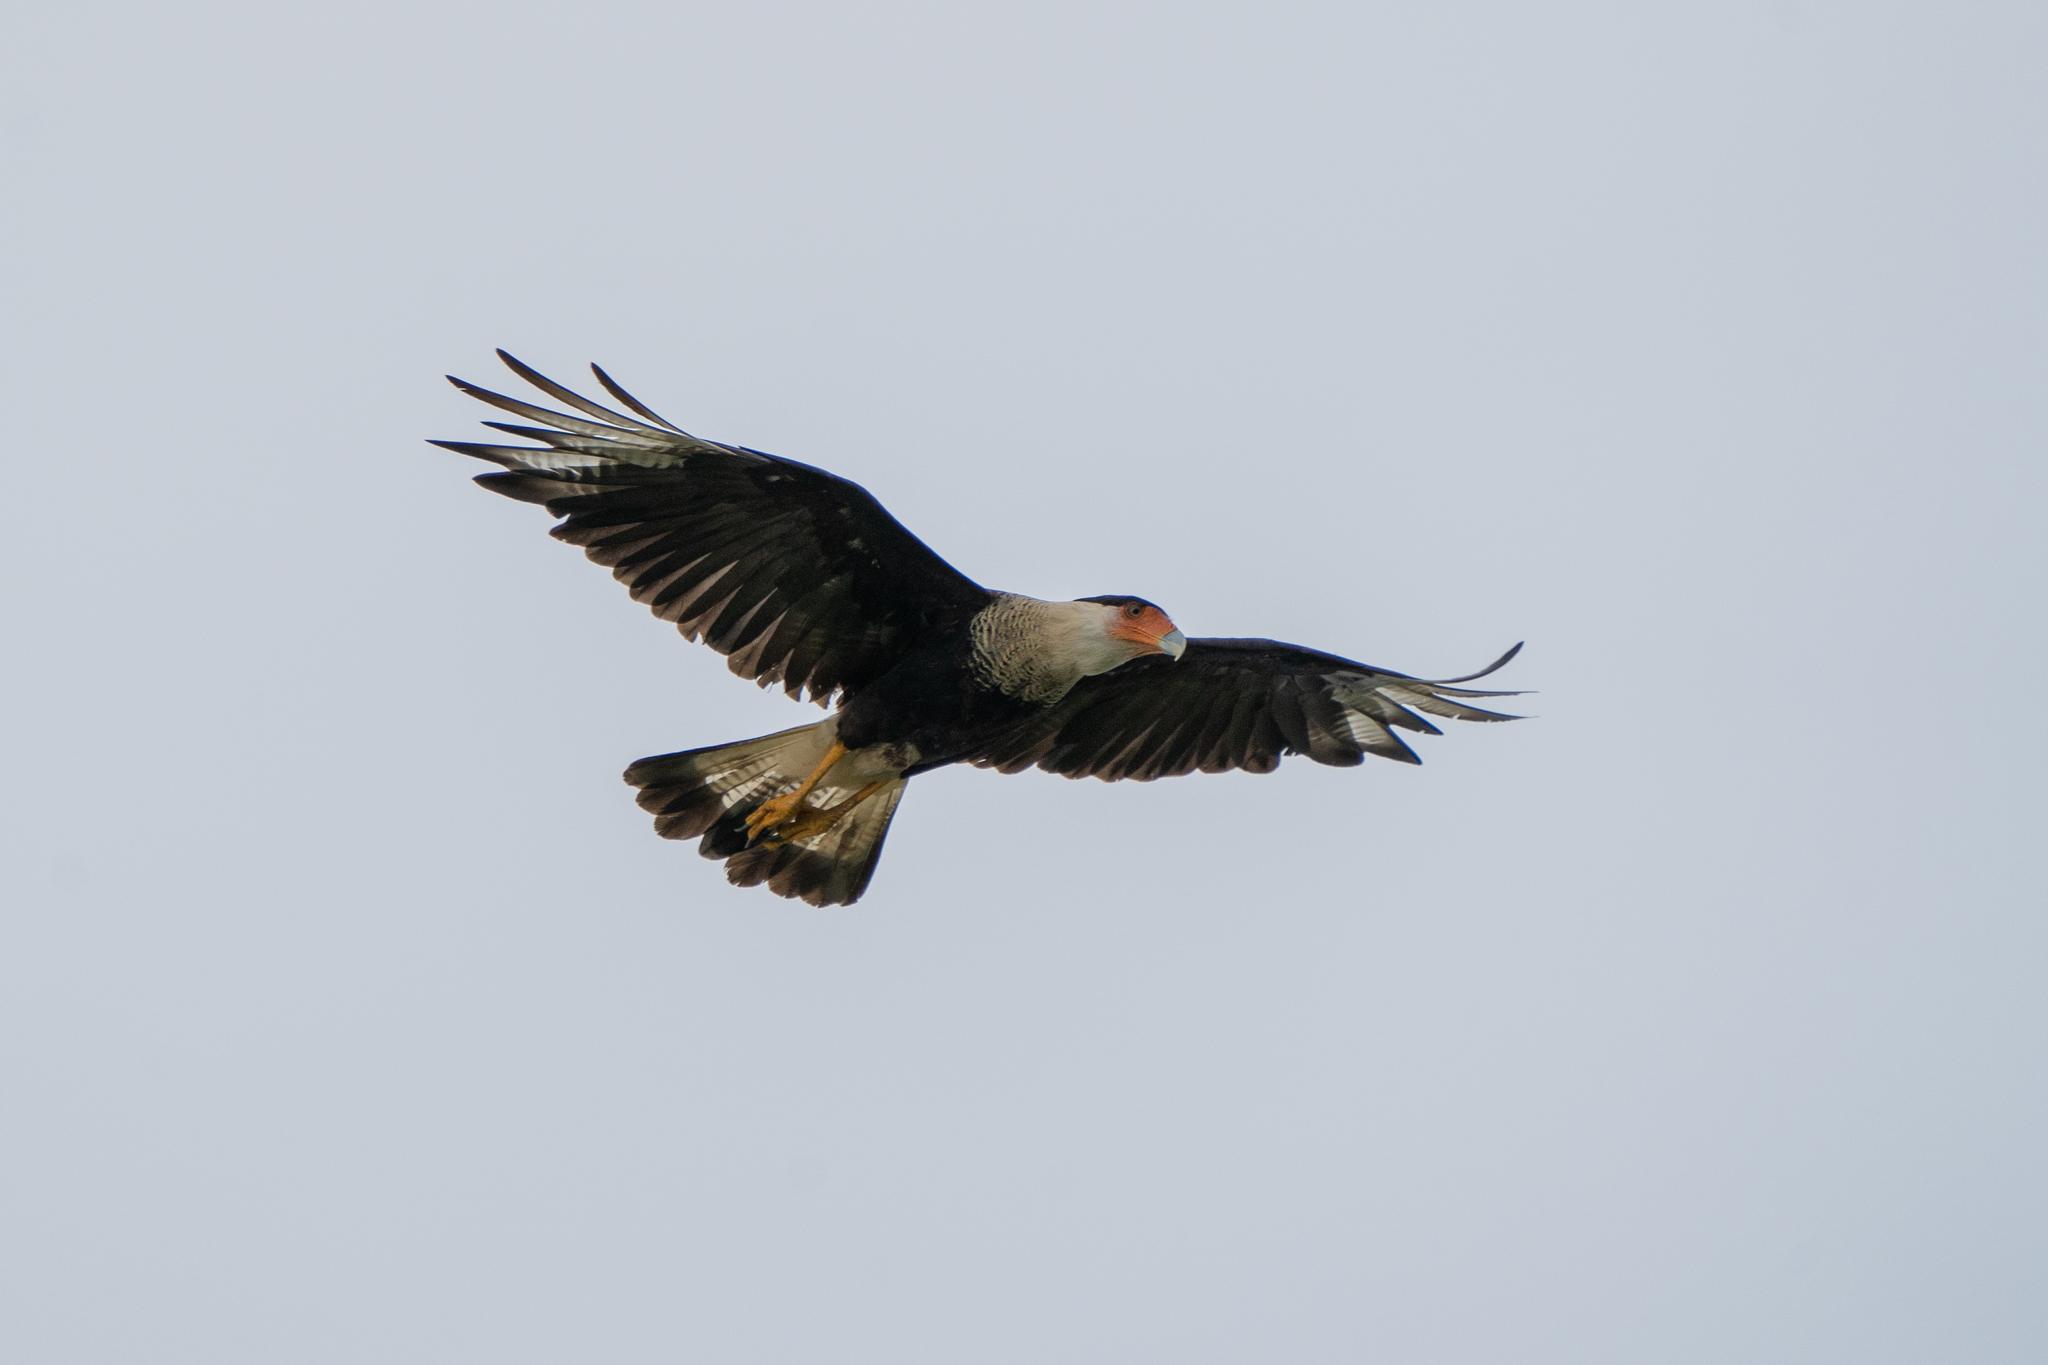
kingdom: Animalia
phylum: Chordata
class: Aves
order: Falconiformes
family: Falconidae
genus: Caracara
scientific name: Caracara plancus
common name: Southern caracara
